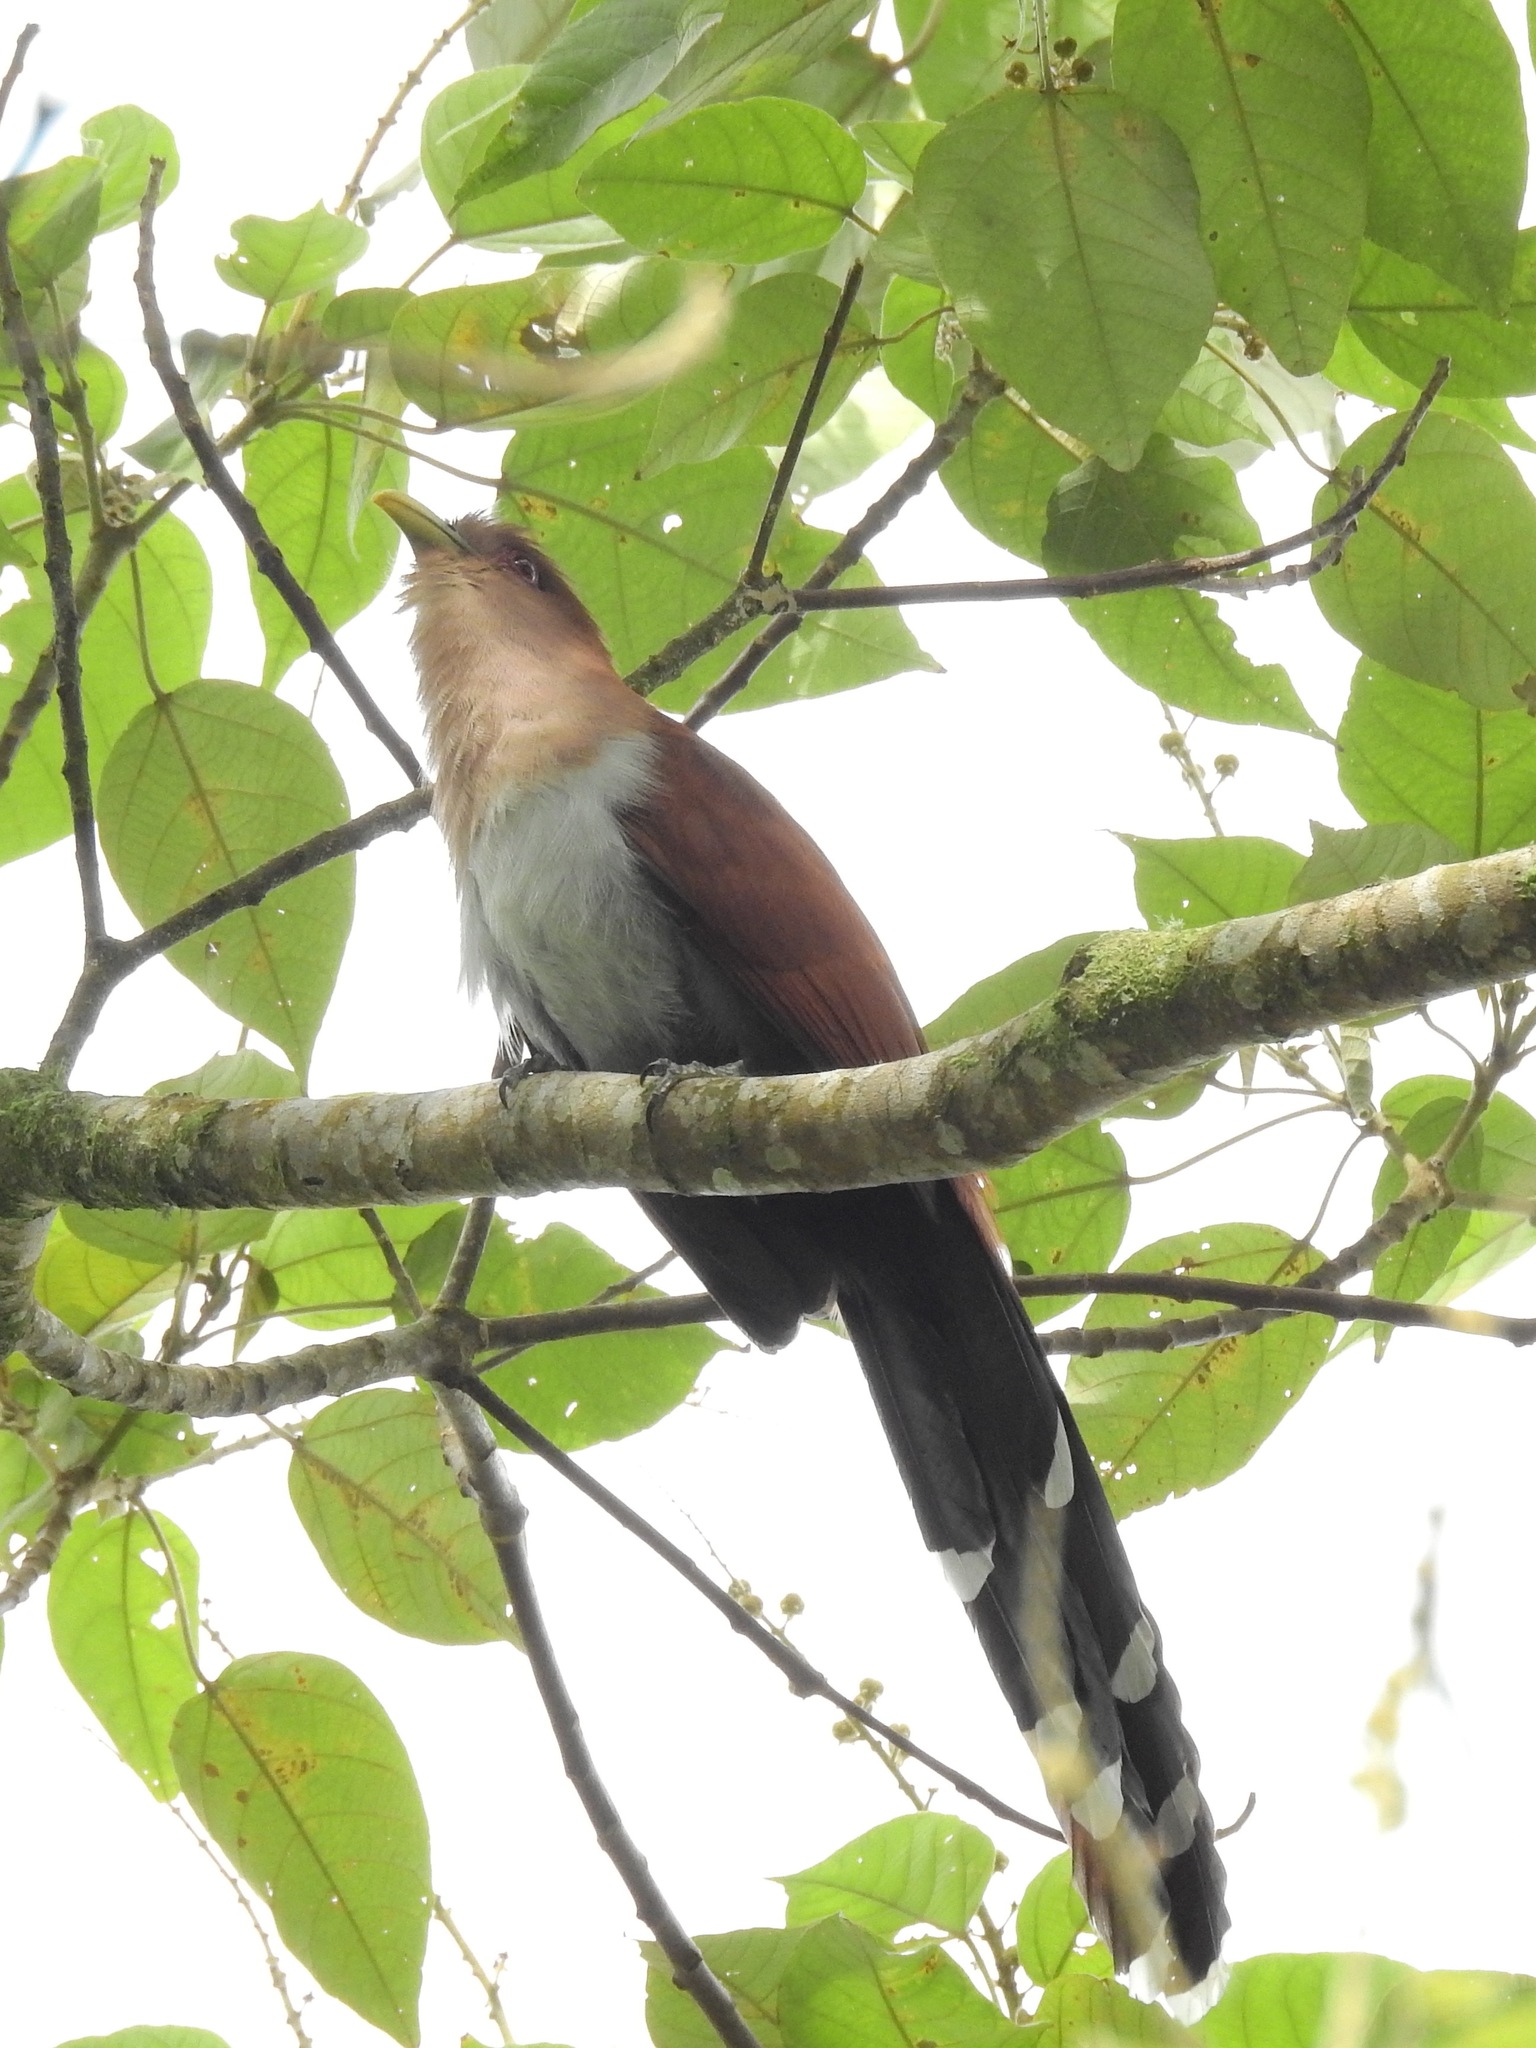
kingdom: Animalia
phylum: Chordata
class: Aves
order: Cuculiformes
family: Cuculidae
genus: Piaya
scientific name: Piaya cayana
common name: Squirrel cuckoo
